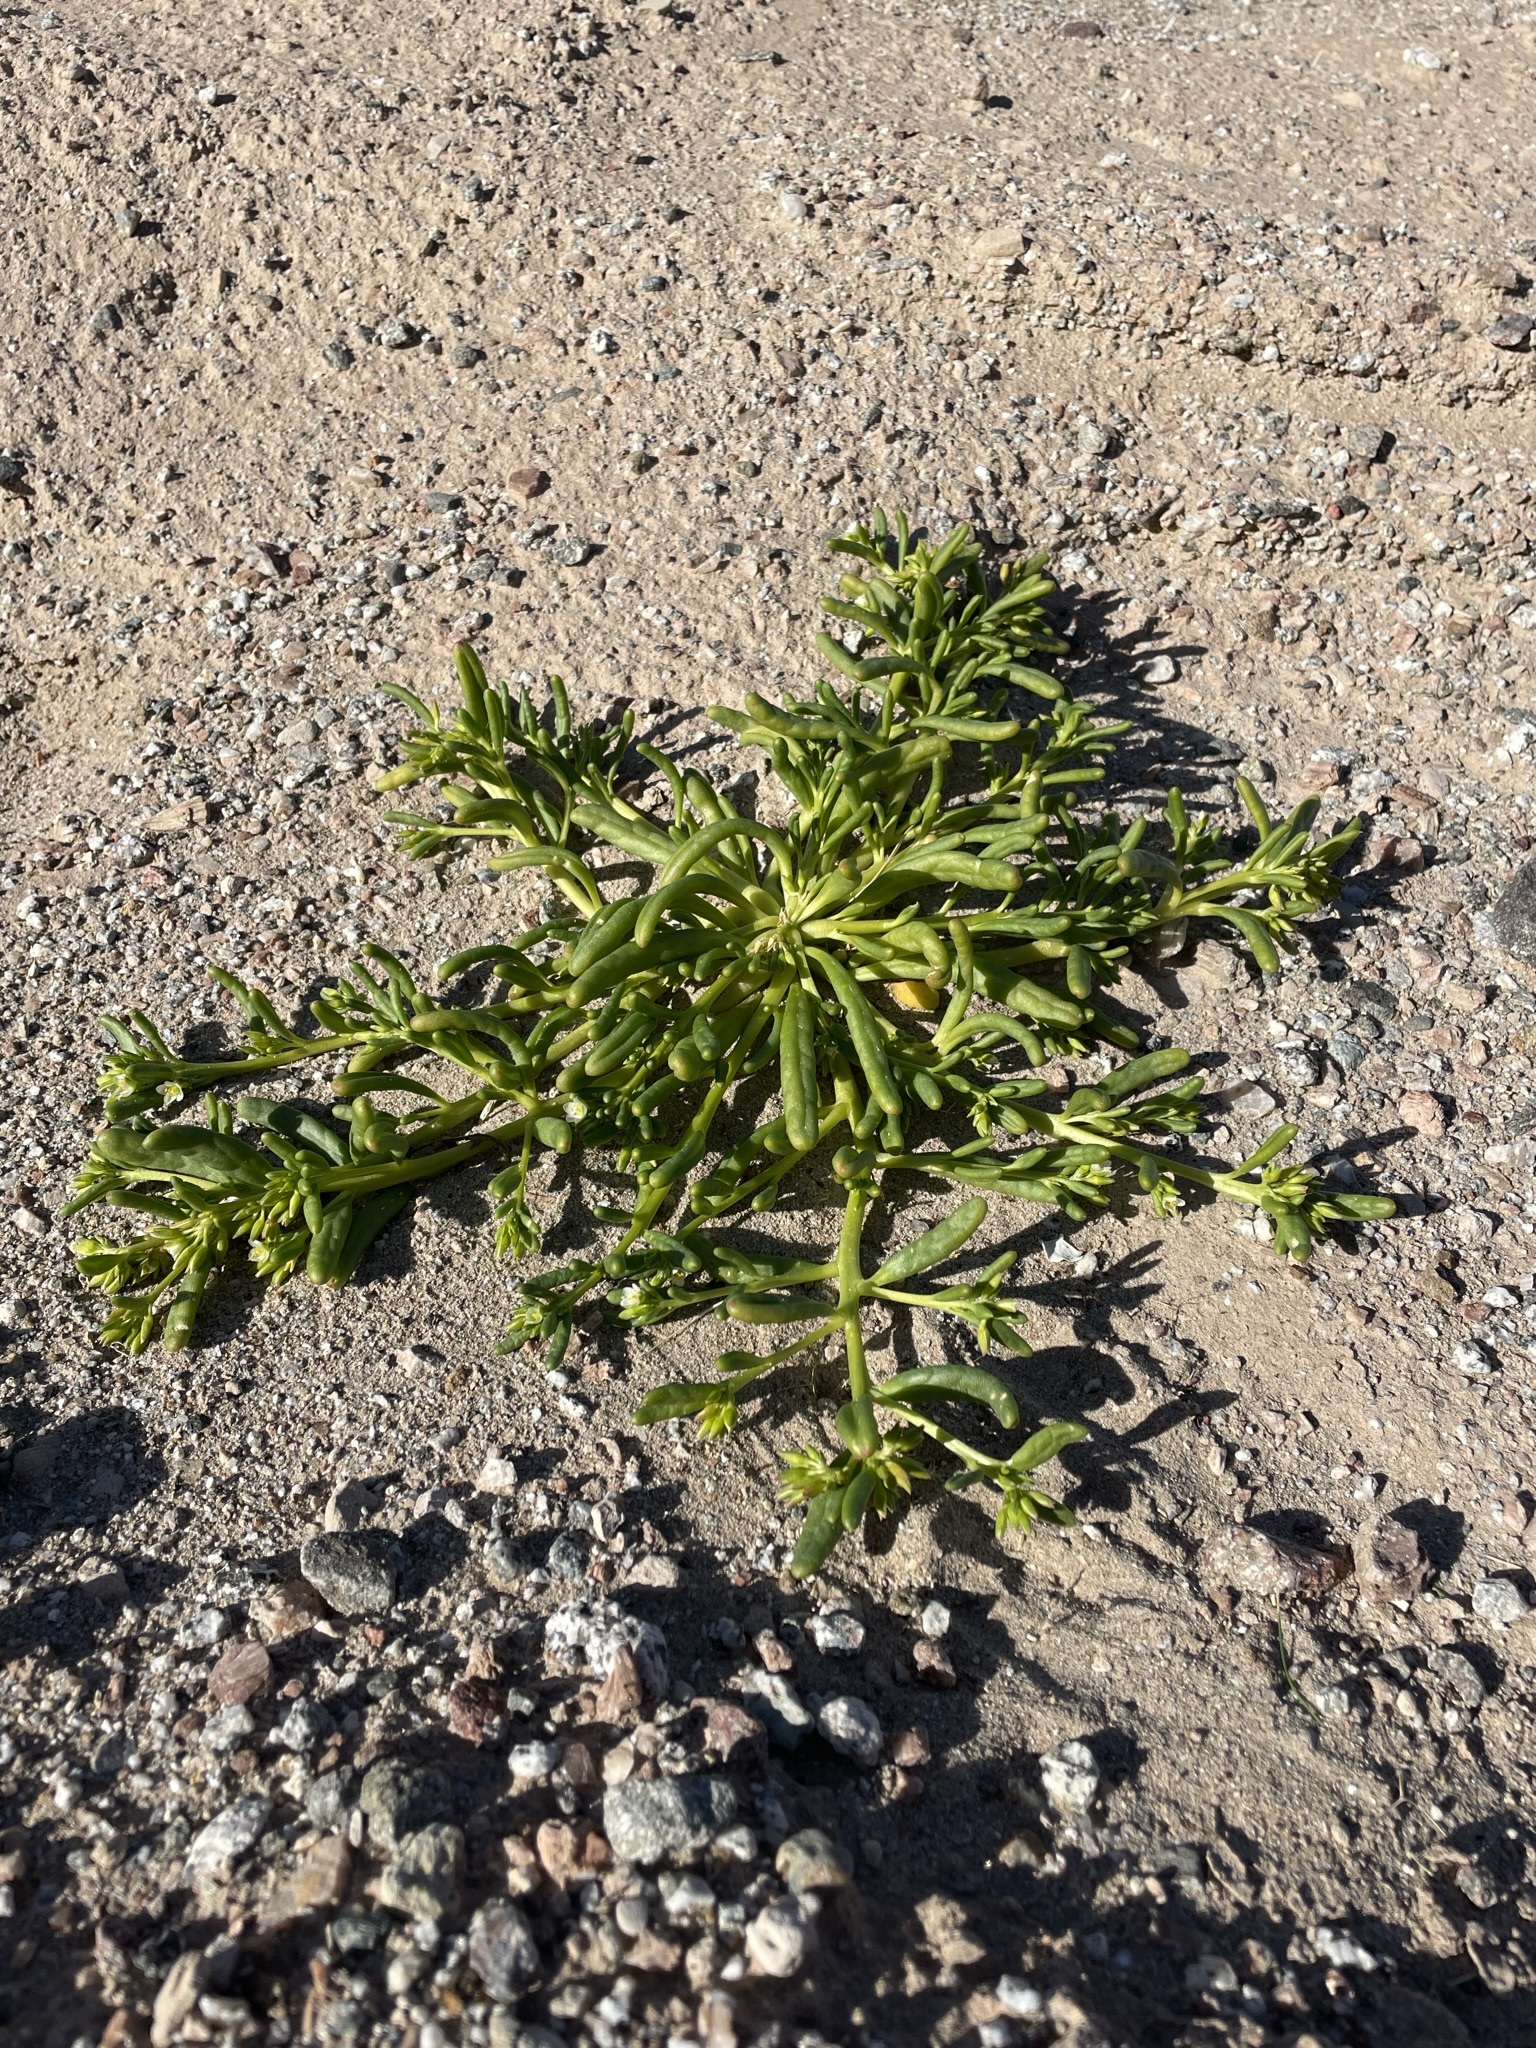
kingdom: Plantae
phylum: Tracheophyta
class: Magnoliopsida
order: Caryophyllales
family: Montiaceae
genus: Thingia
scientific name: Thingia ambigua
